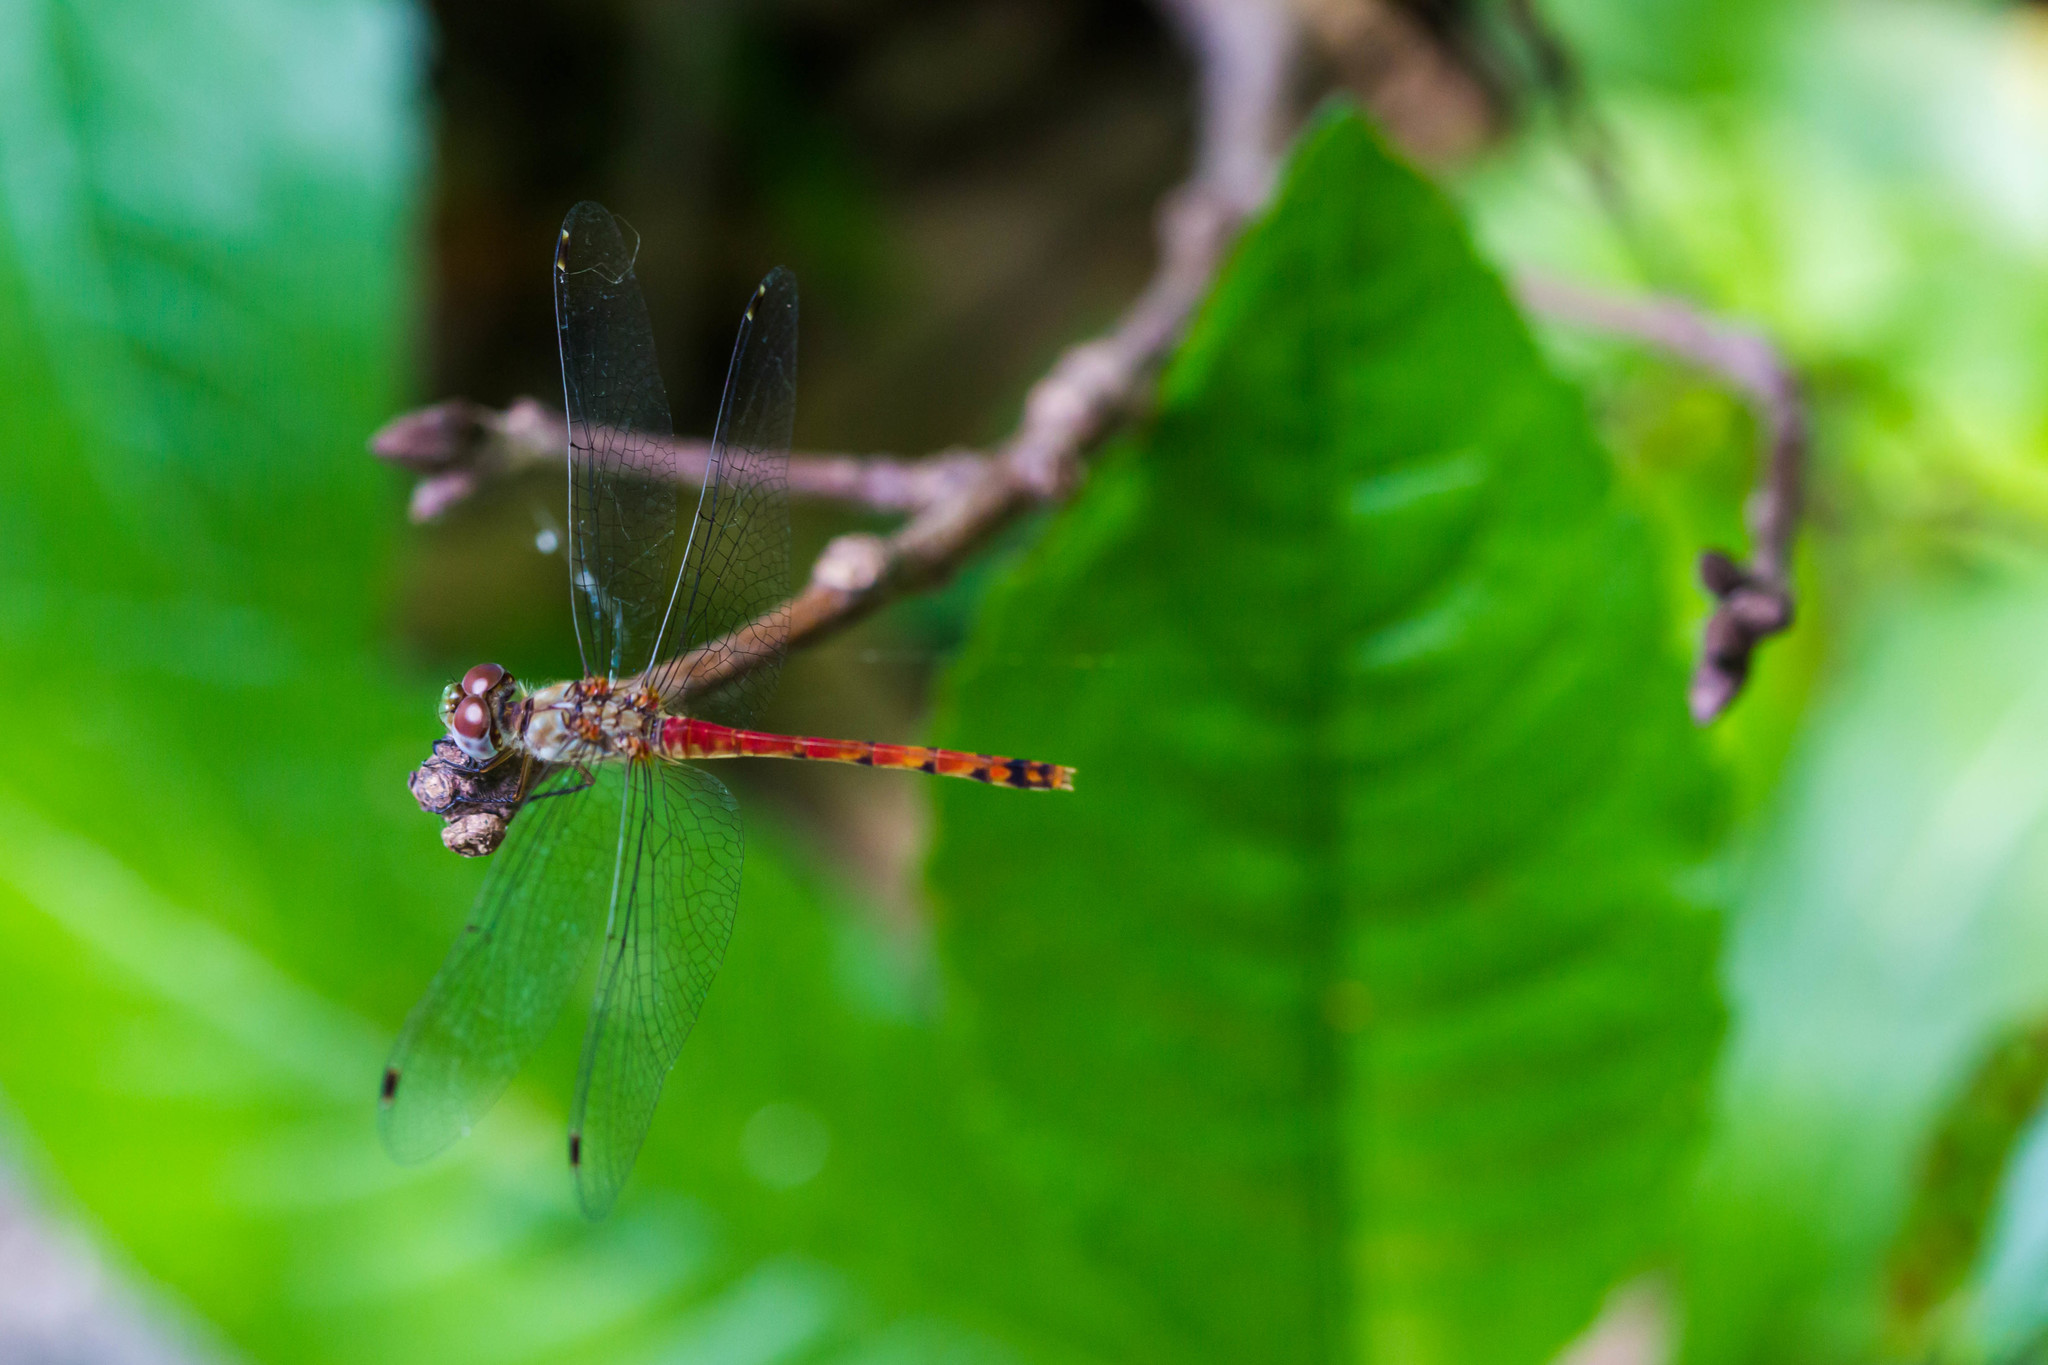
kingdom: Animalia
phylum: Arthropoda
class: Insecta
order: Odonata
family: Libellulidae
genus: Sympetrum
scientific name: Sympetrum ambiguum
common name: Blue-faced meadowhawk
